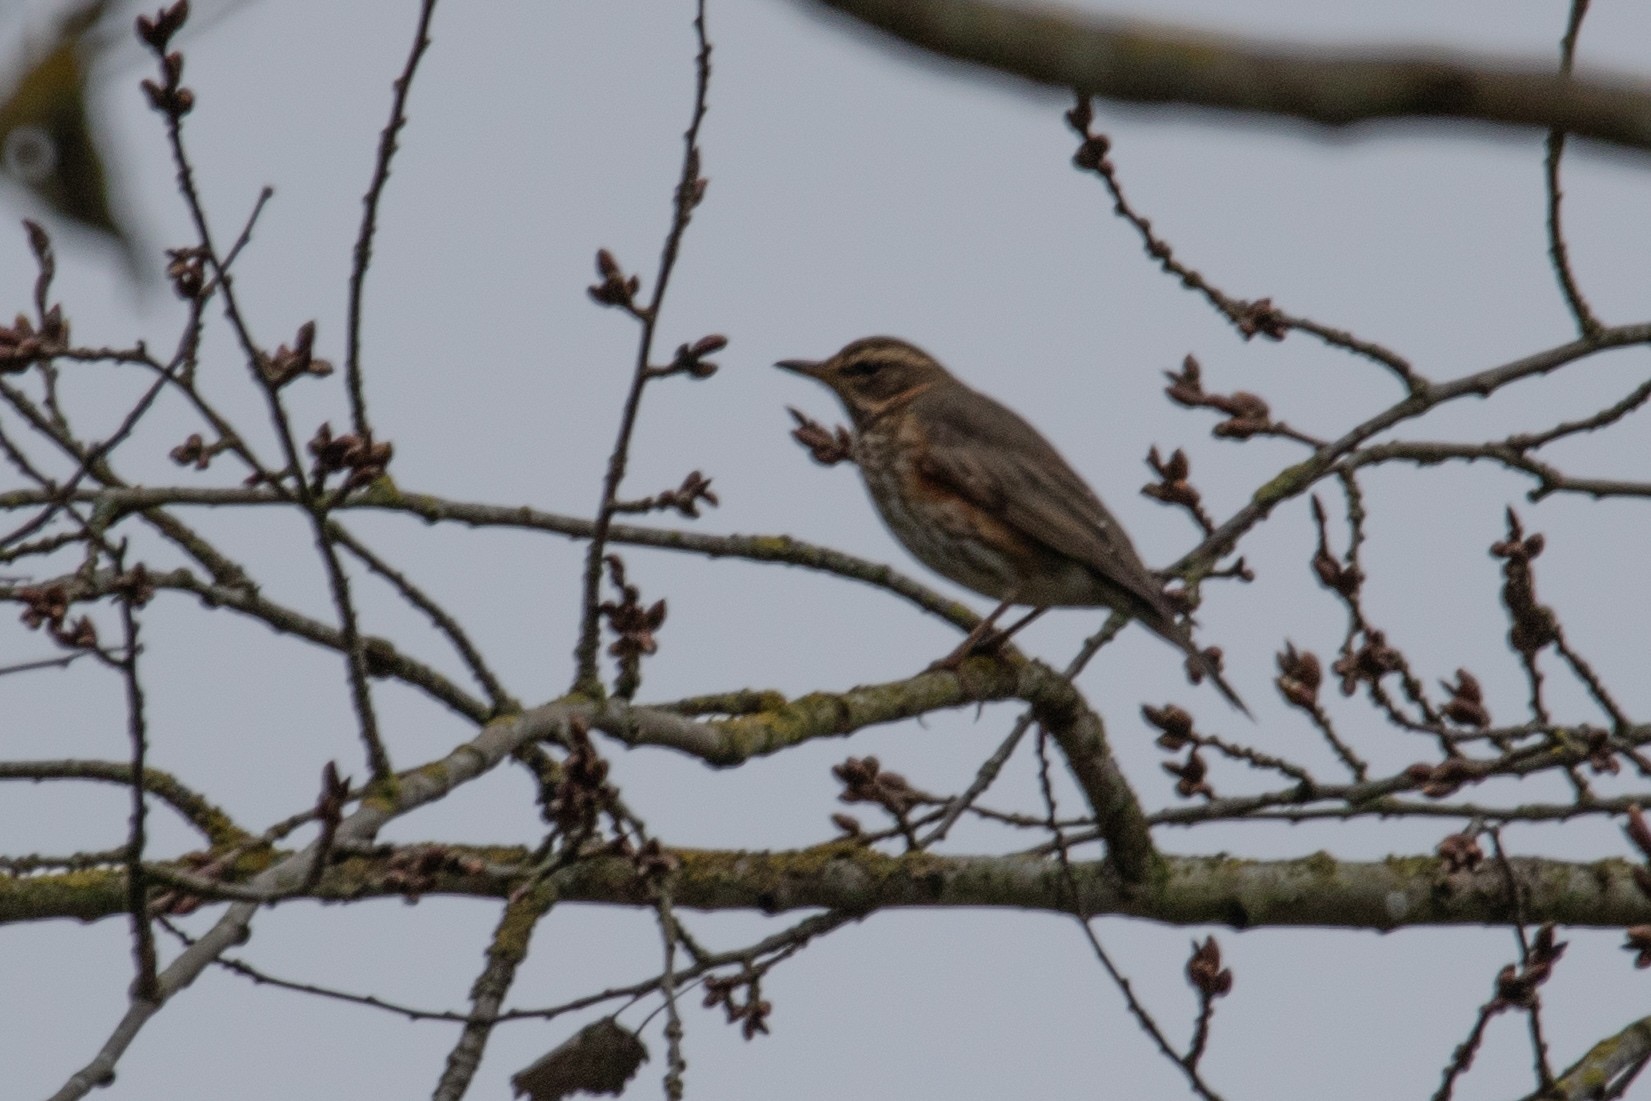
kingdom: Animalia
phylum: Chordata
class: Aves
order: Passeriformes
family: Turdidae
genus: Turdus
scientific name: Turdus iliacus
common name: Redwing
